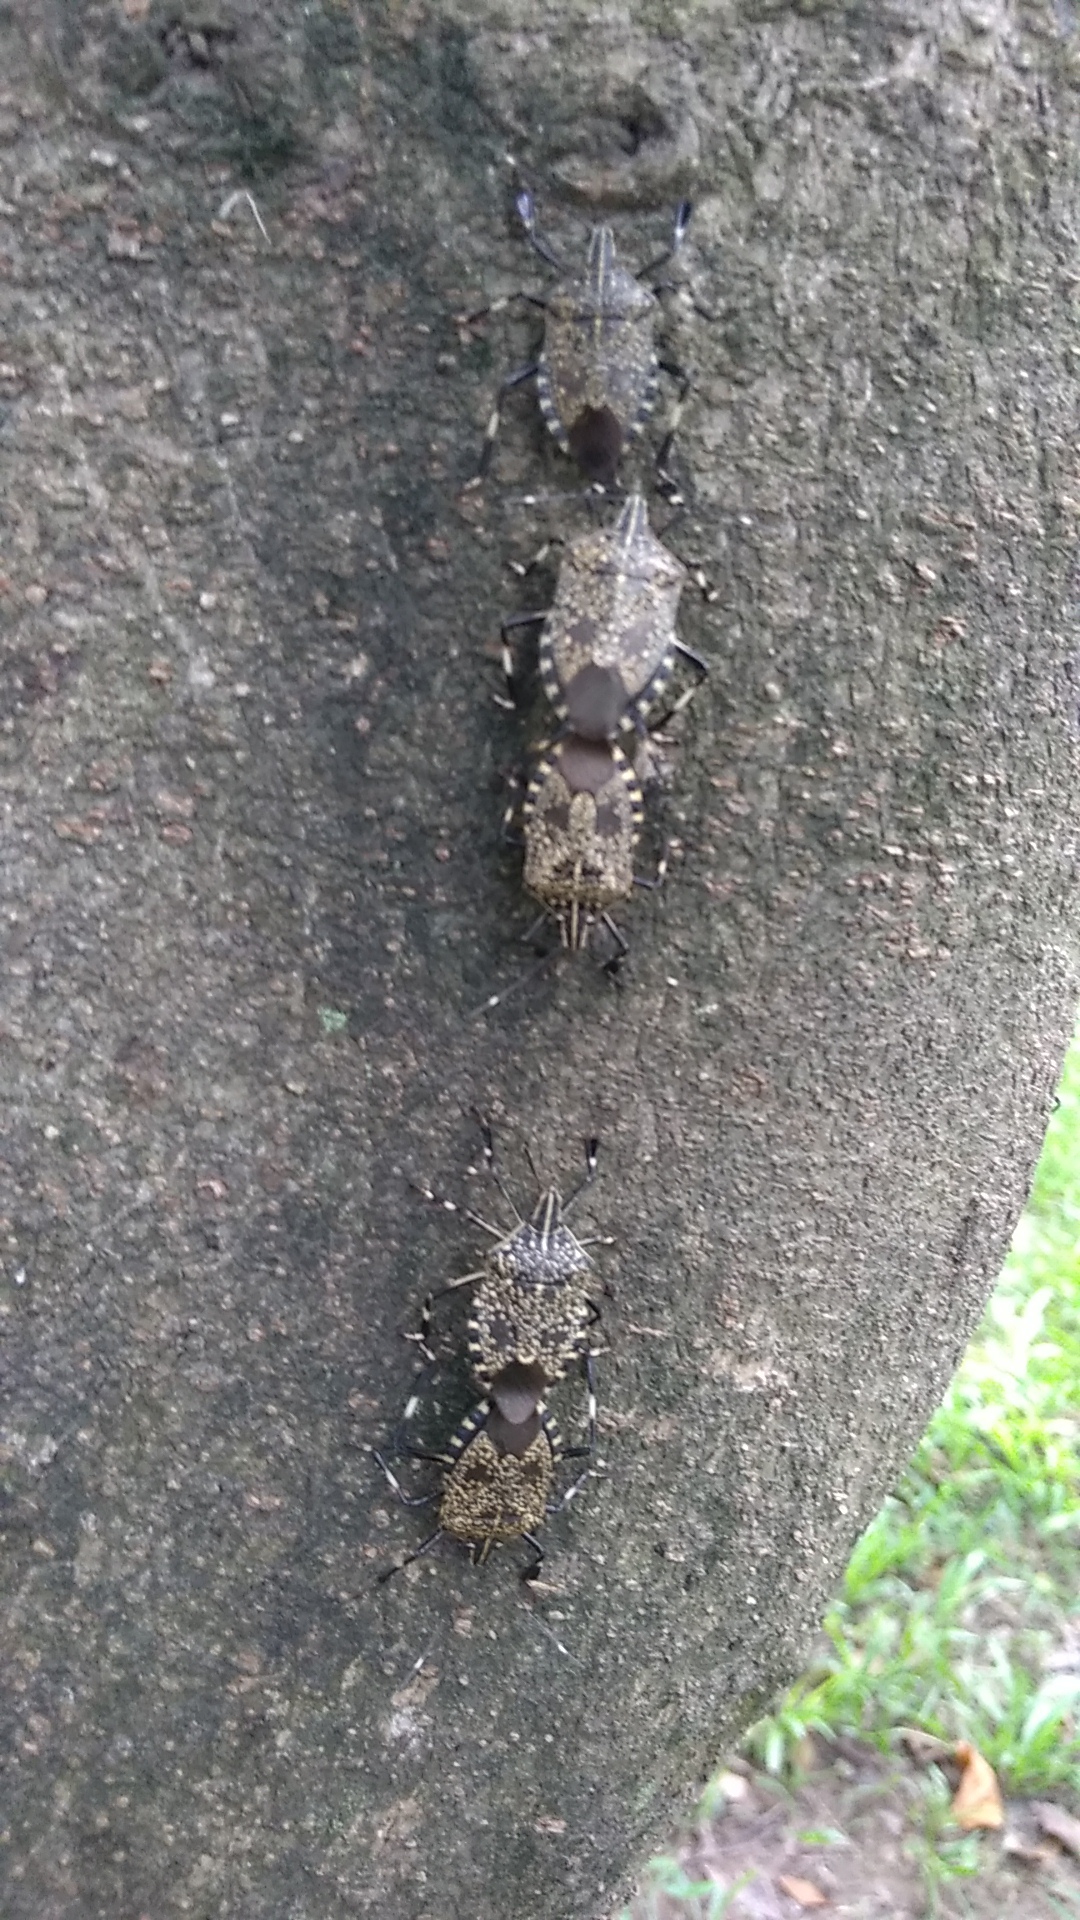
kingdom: Animalia
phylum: Arthropoda
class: Insecta
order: Hemiptera
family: Pentatomidae
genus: Erthesina
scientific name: Erthesina fullo
